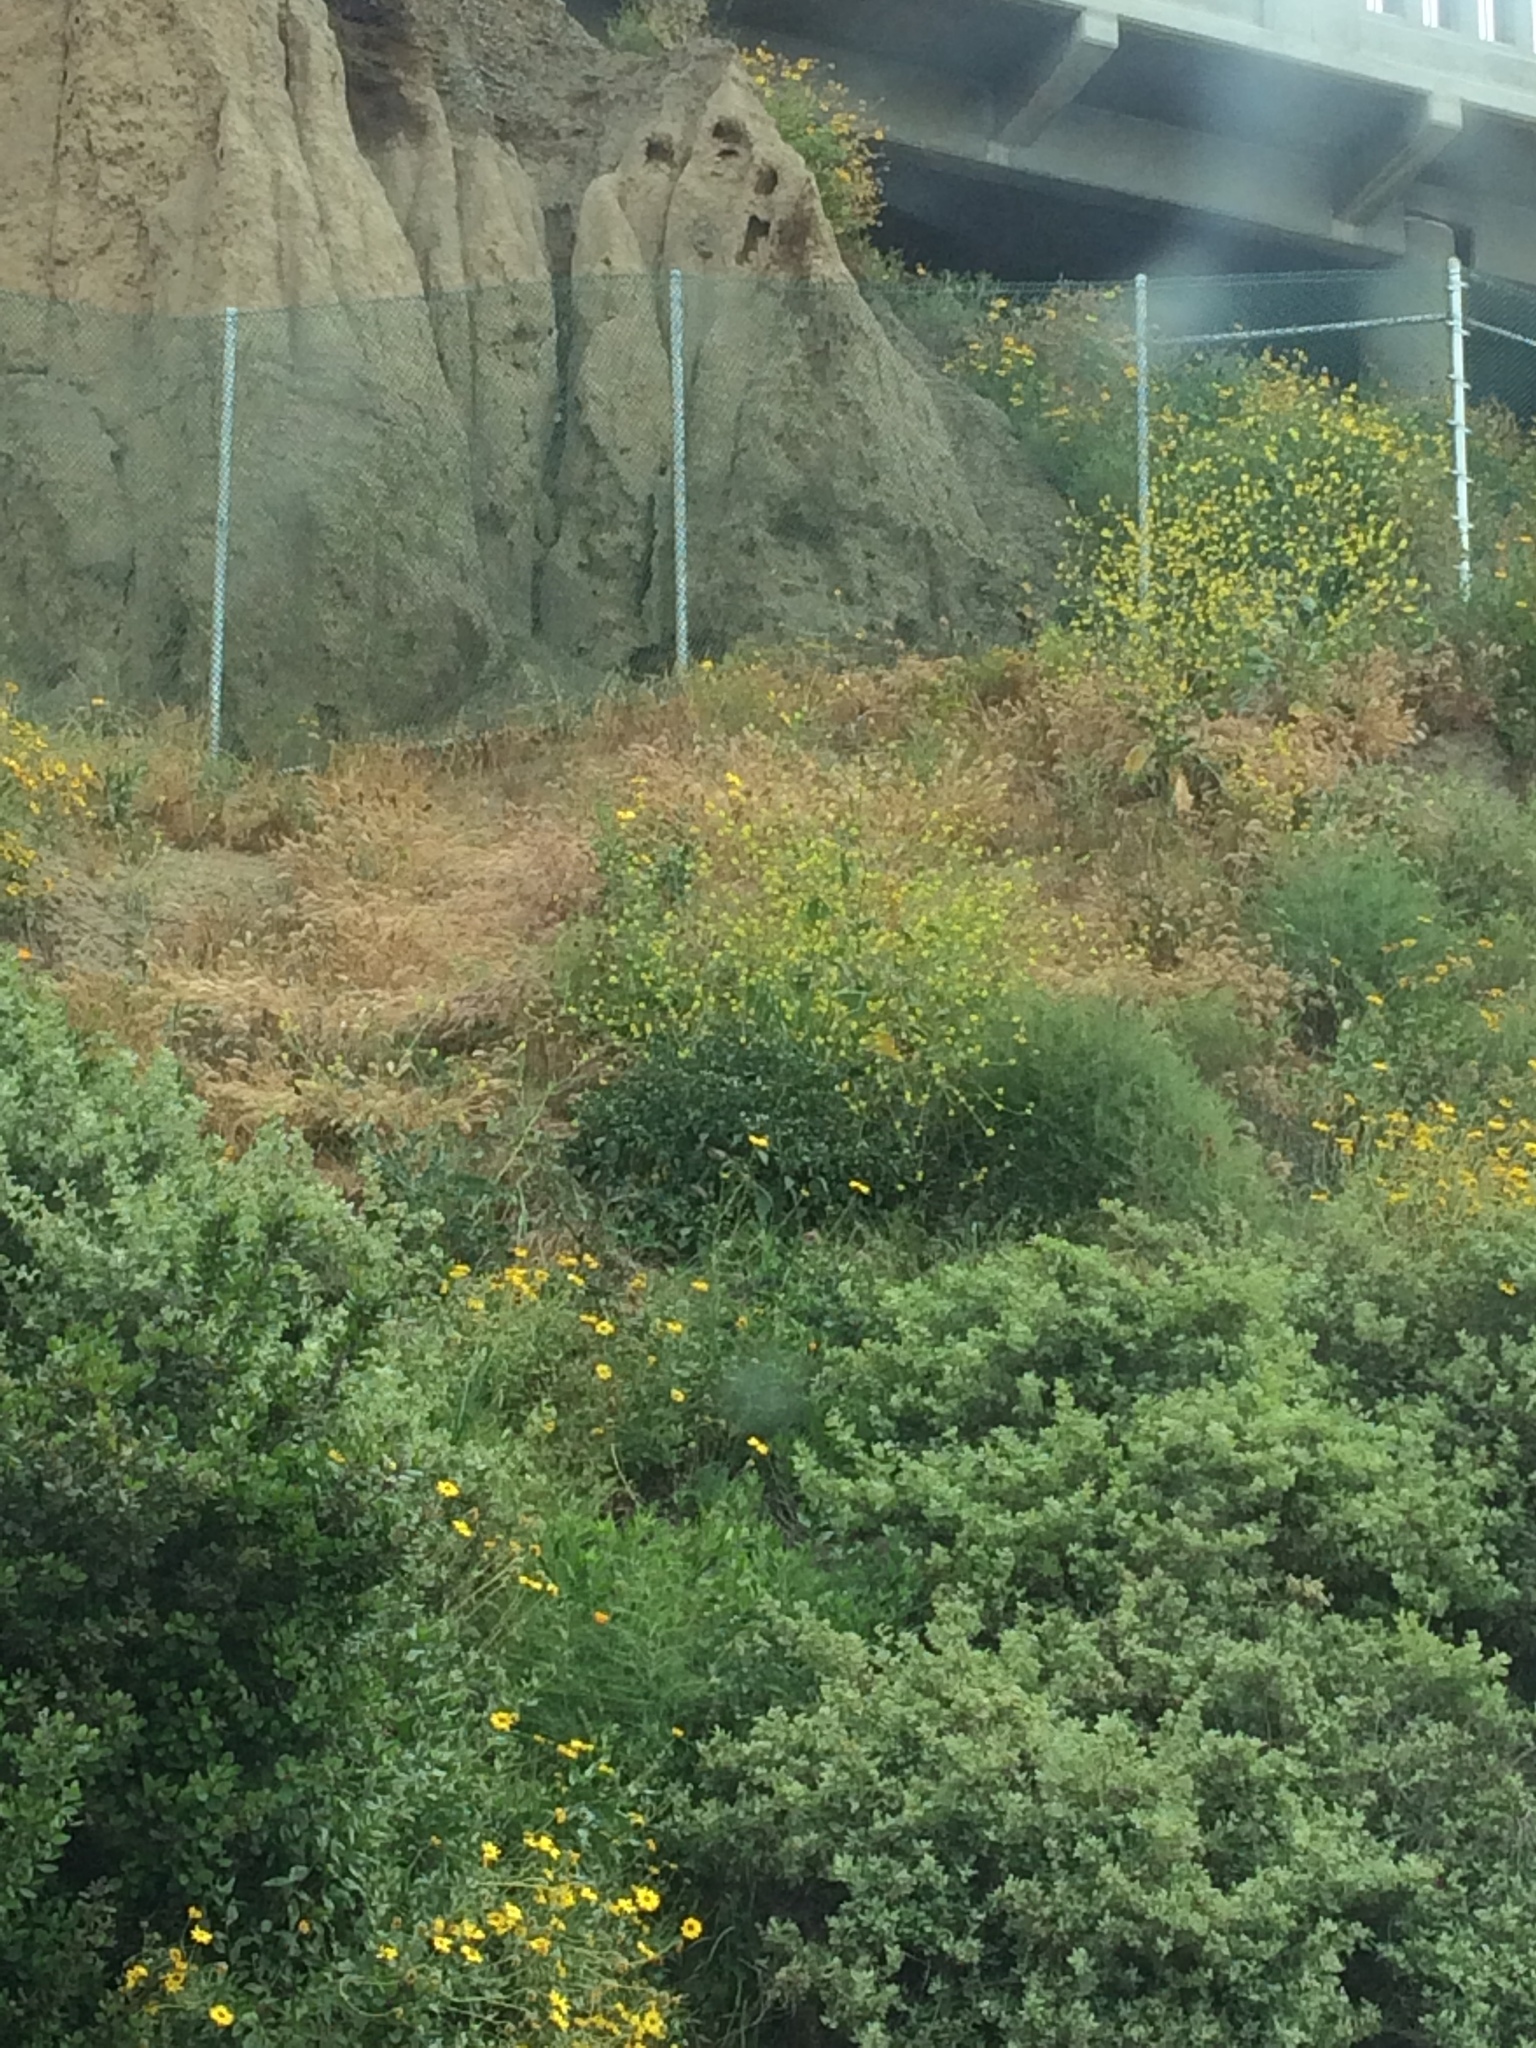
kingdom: Plantae
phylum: Tracheophyta
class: Magnoliopsida
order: Brassicales
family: Brassicaceae
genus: Hirschfeldia
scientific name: Hirschfeldia incana
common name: Hoary mustard
